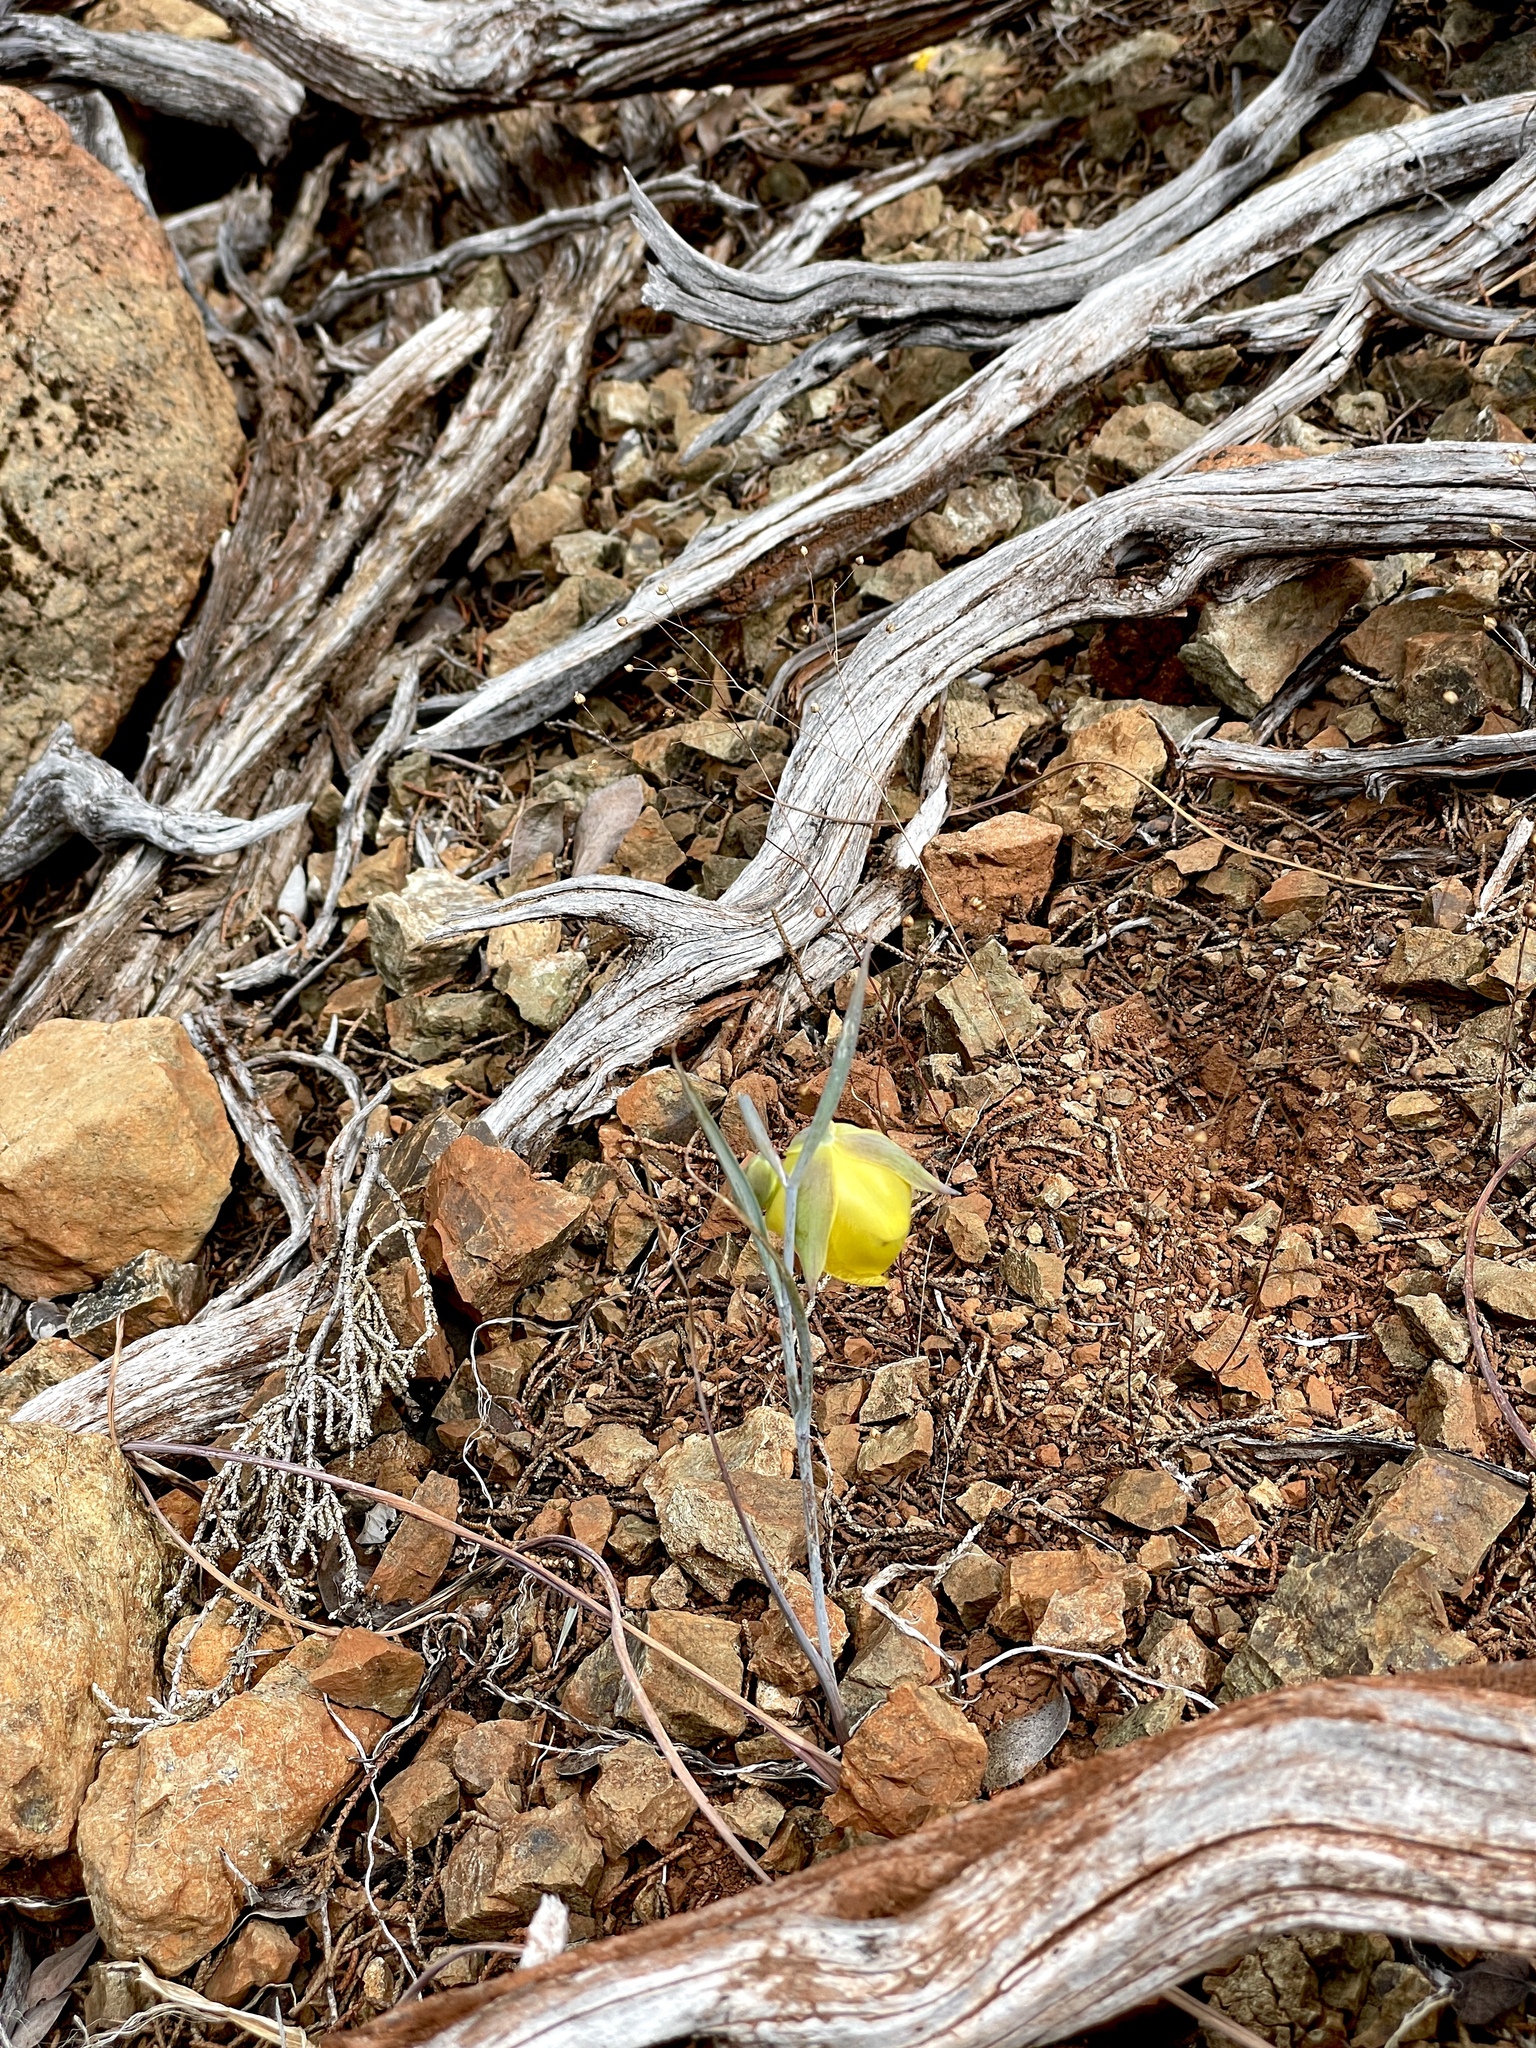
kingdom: Plantae
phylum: Tracheophyta
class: Liliopsida
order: Liliales
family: Liliaceae
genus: Calochortus
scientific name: Calochortus raichei
